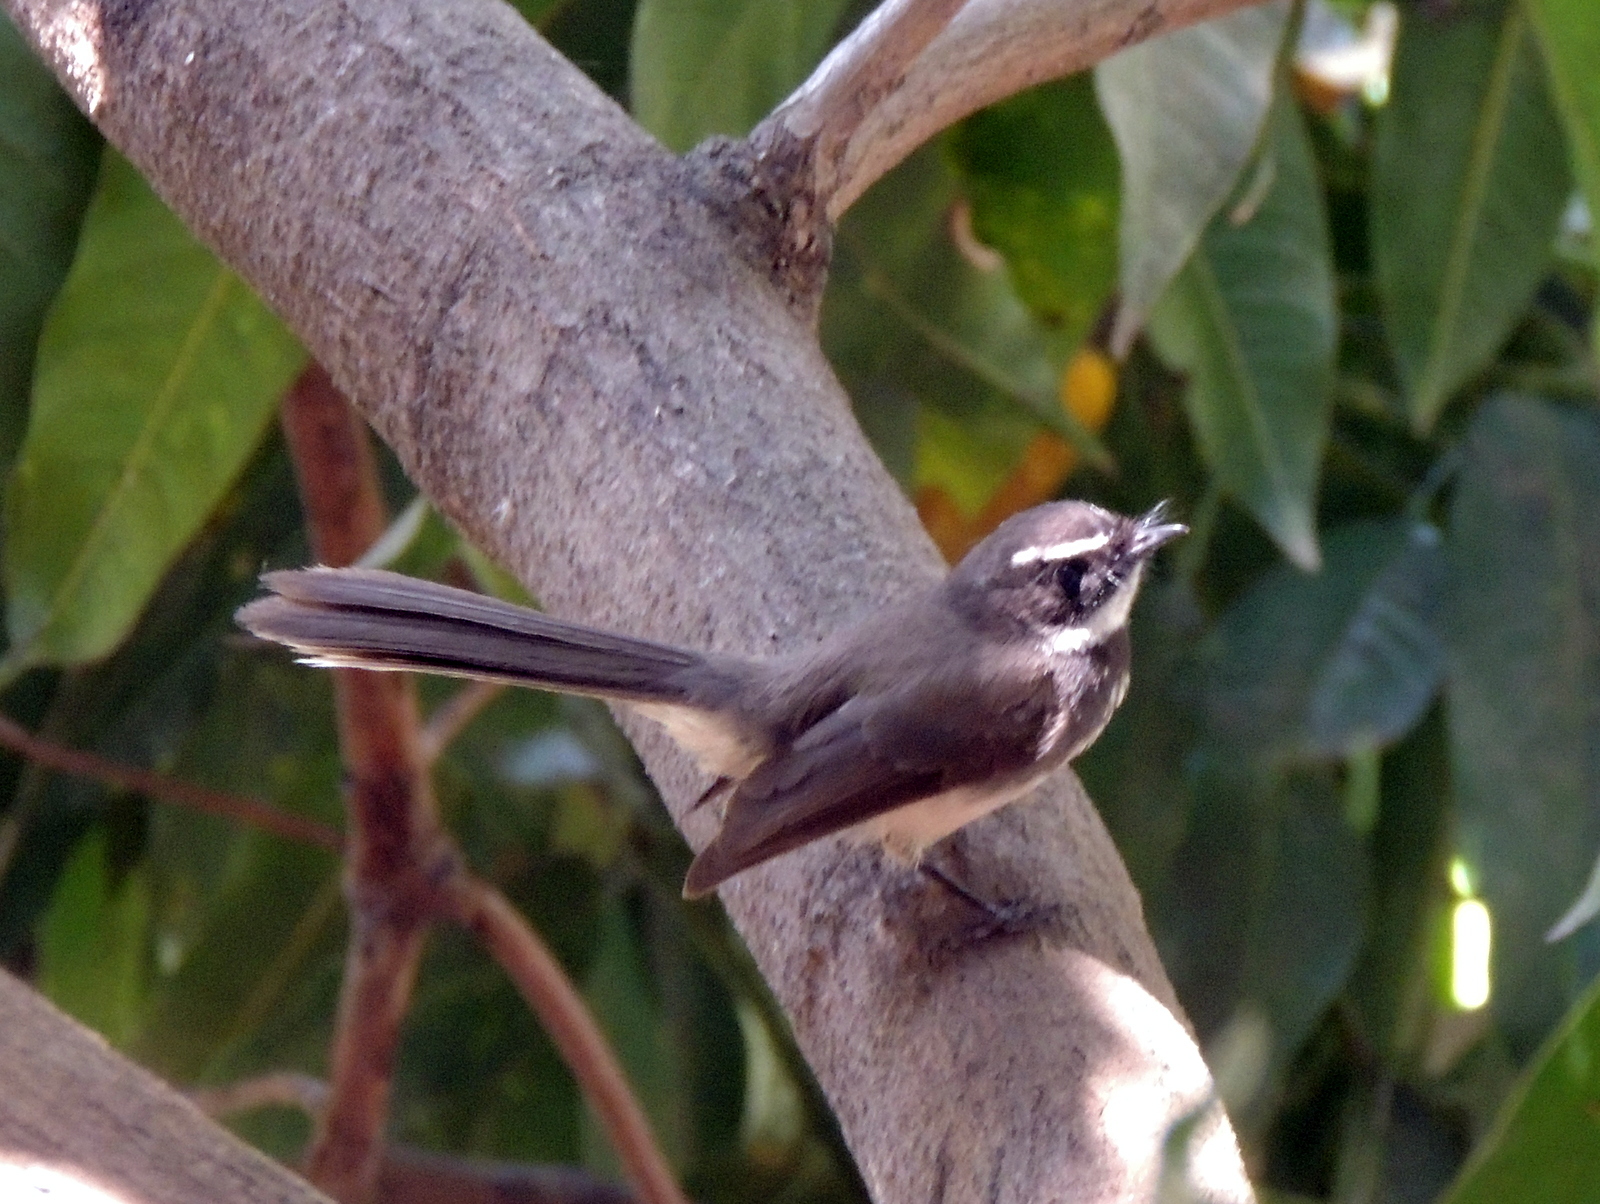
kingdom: Animalia
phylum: Chordata
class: Aves
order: Passeriformes
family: Rhipiduridae
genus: Rhipidura
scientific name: Rhipidura albogularis
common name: White-spotted fantail
